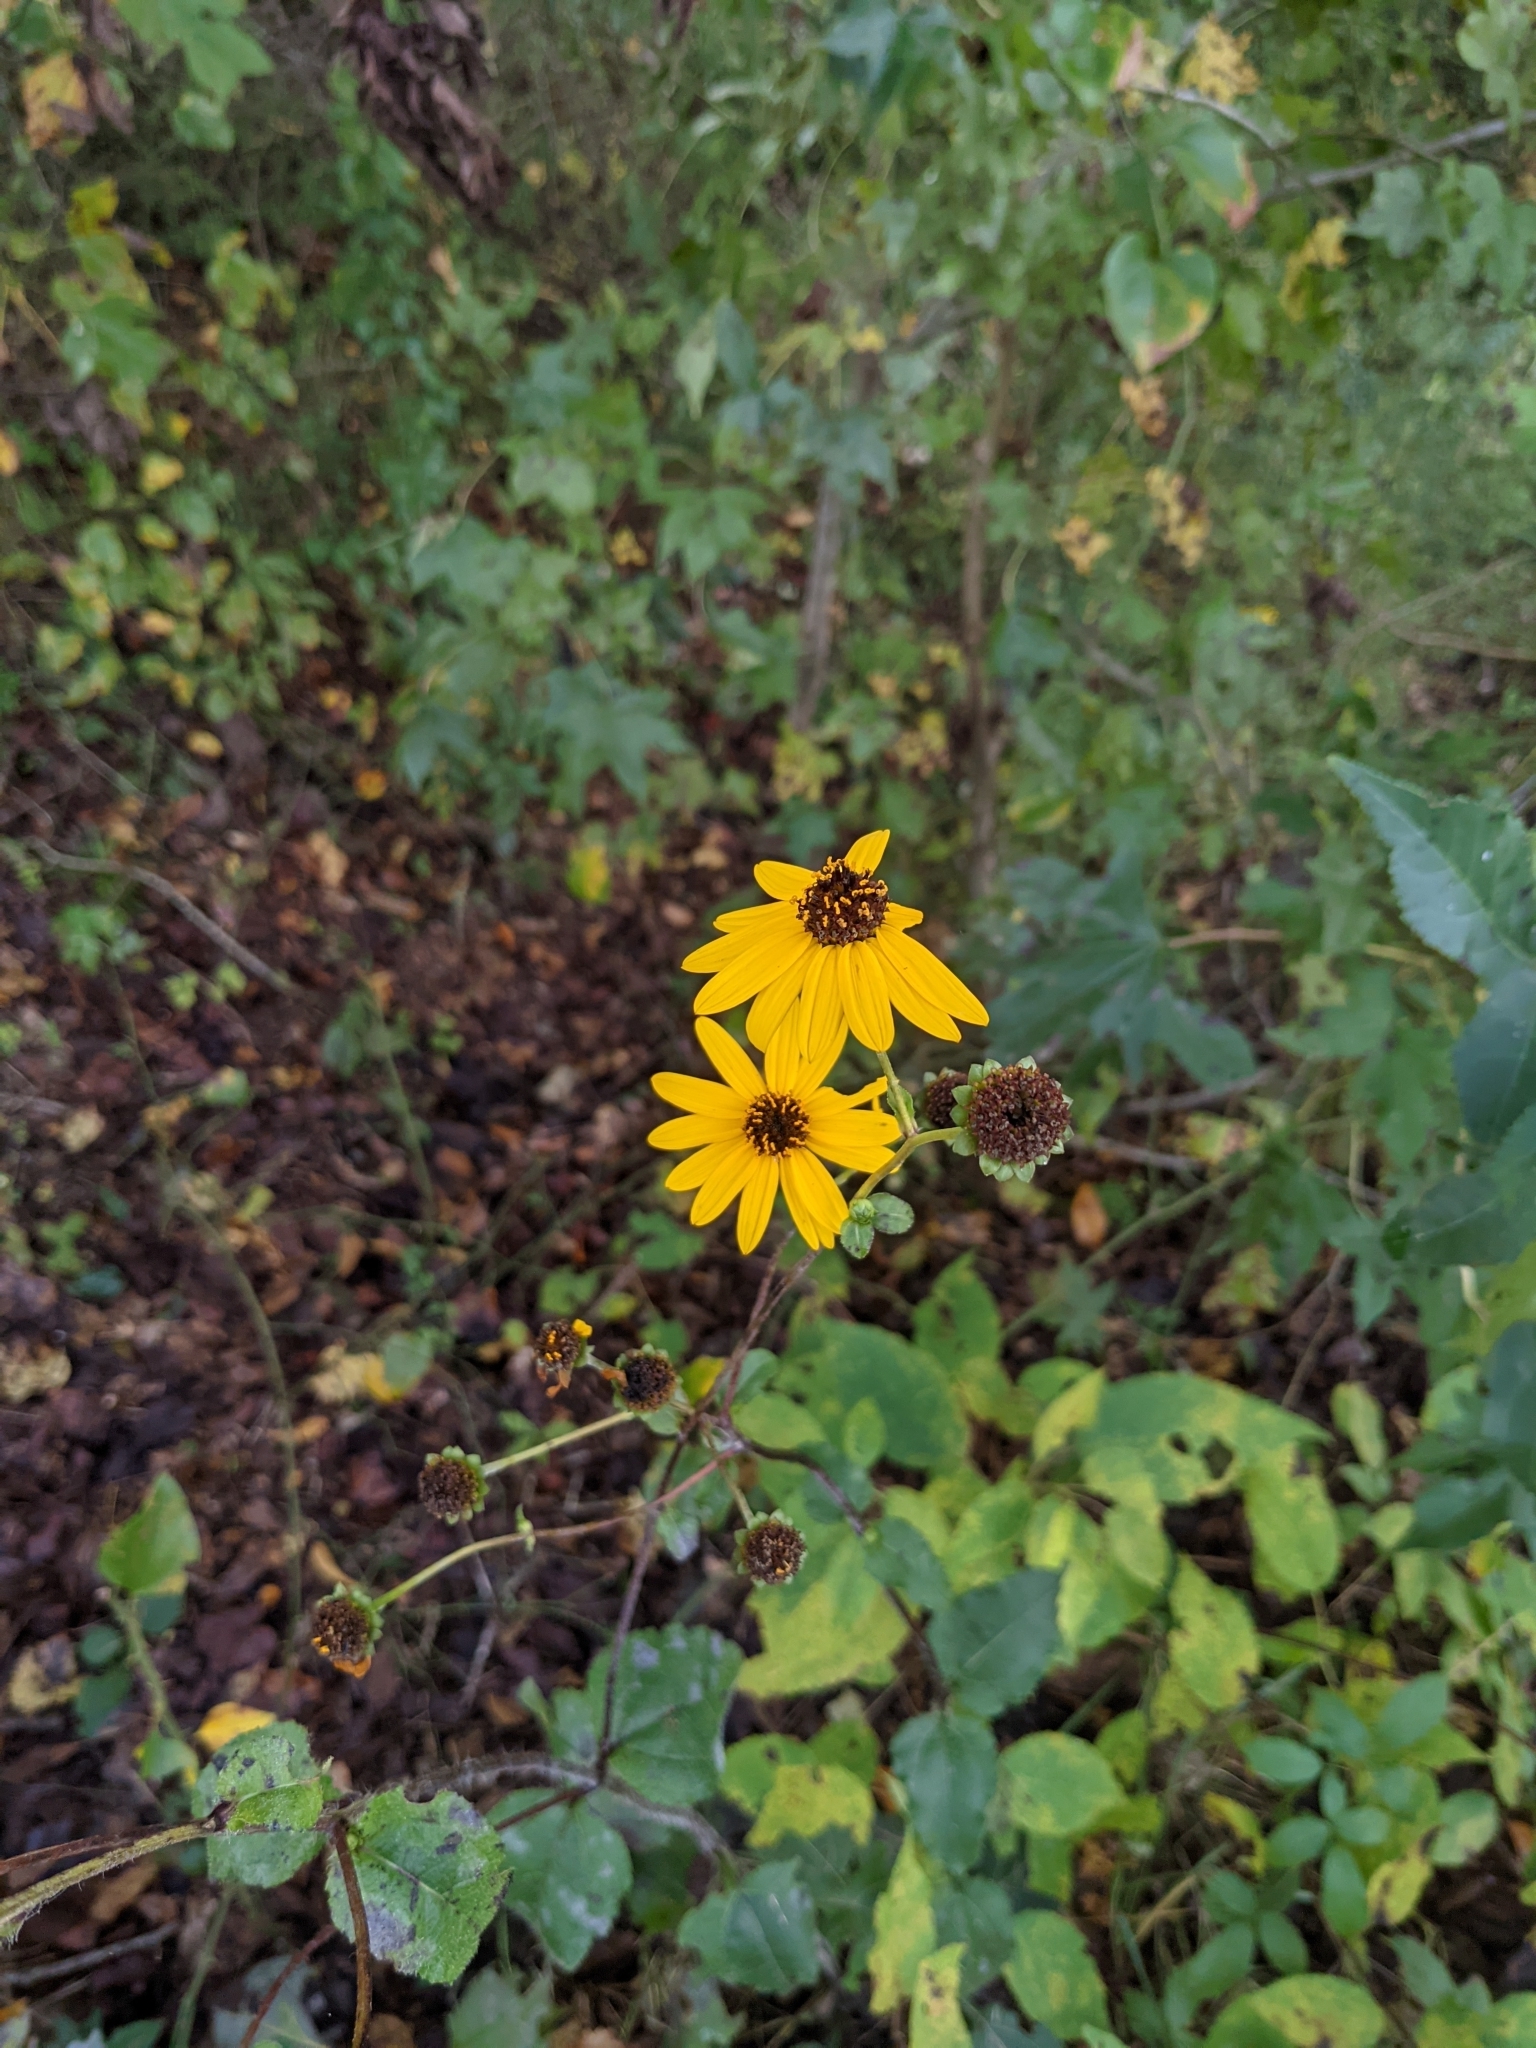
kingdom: Plantae
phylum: Tracheophyta
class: Magnoliopsida
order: Asterales
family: Asteraceae
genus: Helianthus
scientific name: Helianthus atrorubens
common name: Dark-eyed sunflower
